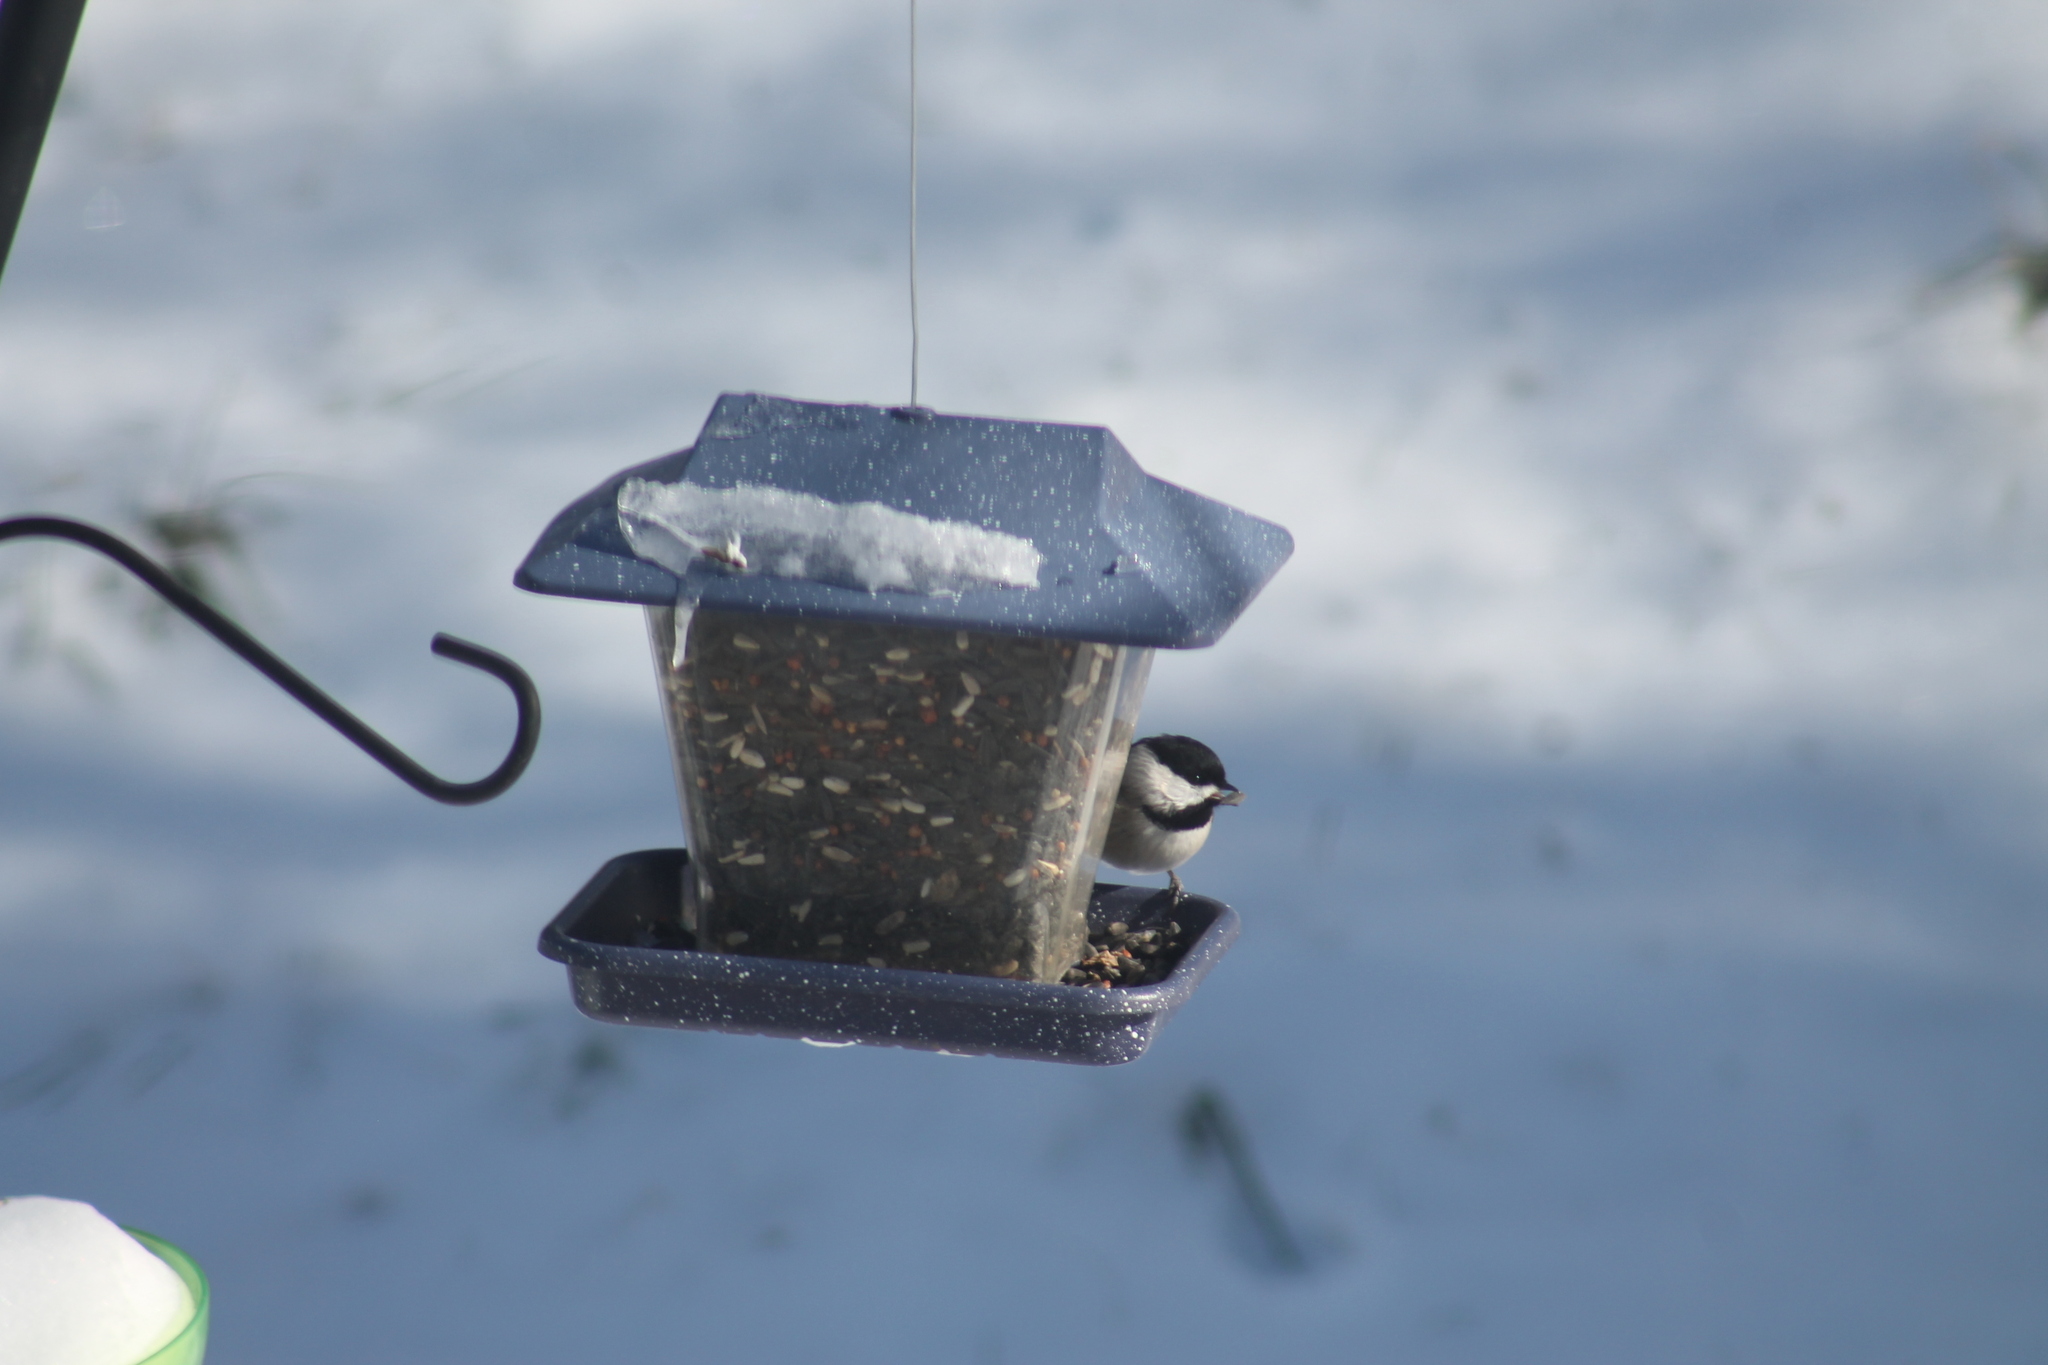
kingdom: Animalia
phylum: Chordata
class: Aves
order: Passeriformes
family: Paridae
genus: Poecile
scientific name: Poecile carolinensis
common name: Carolina chickadee
